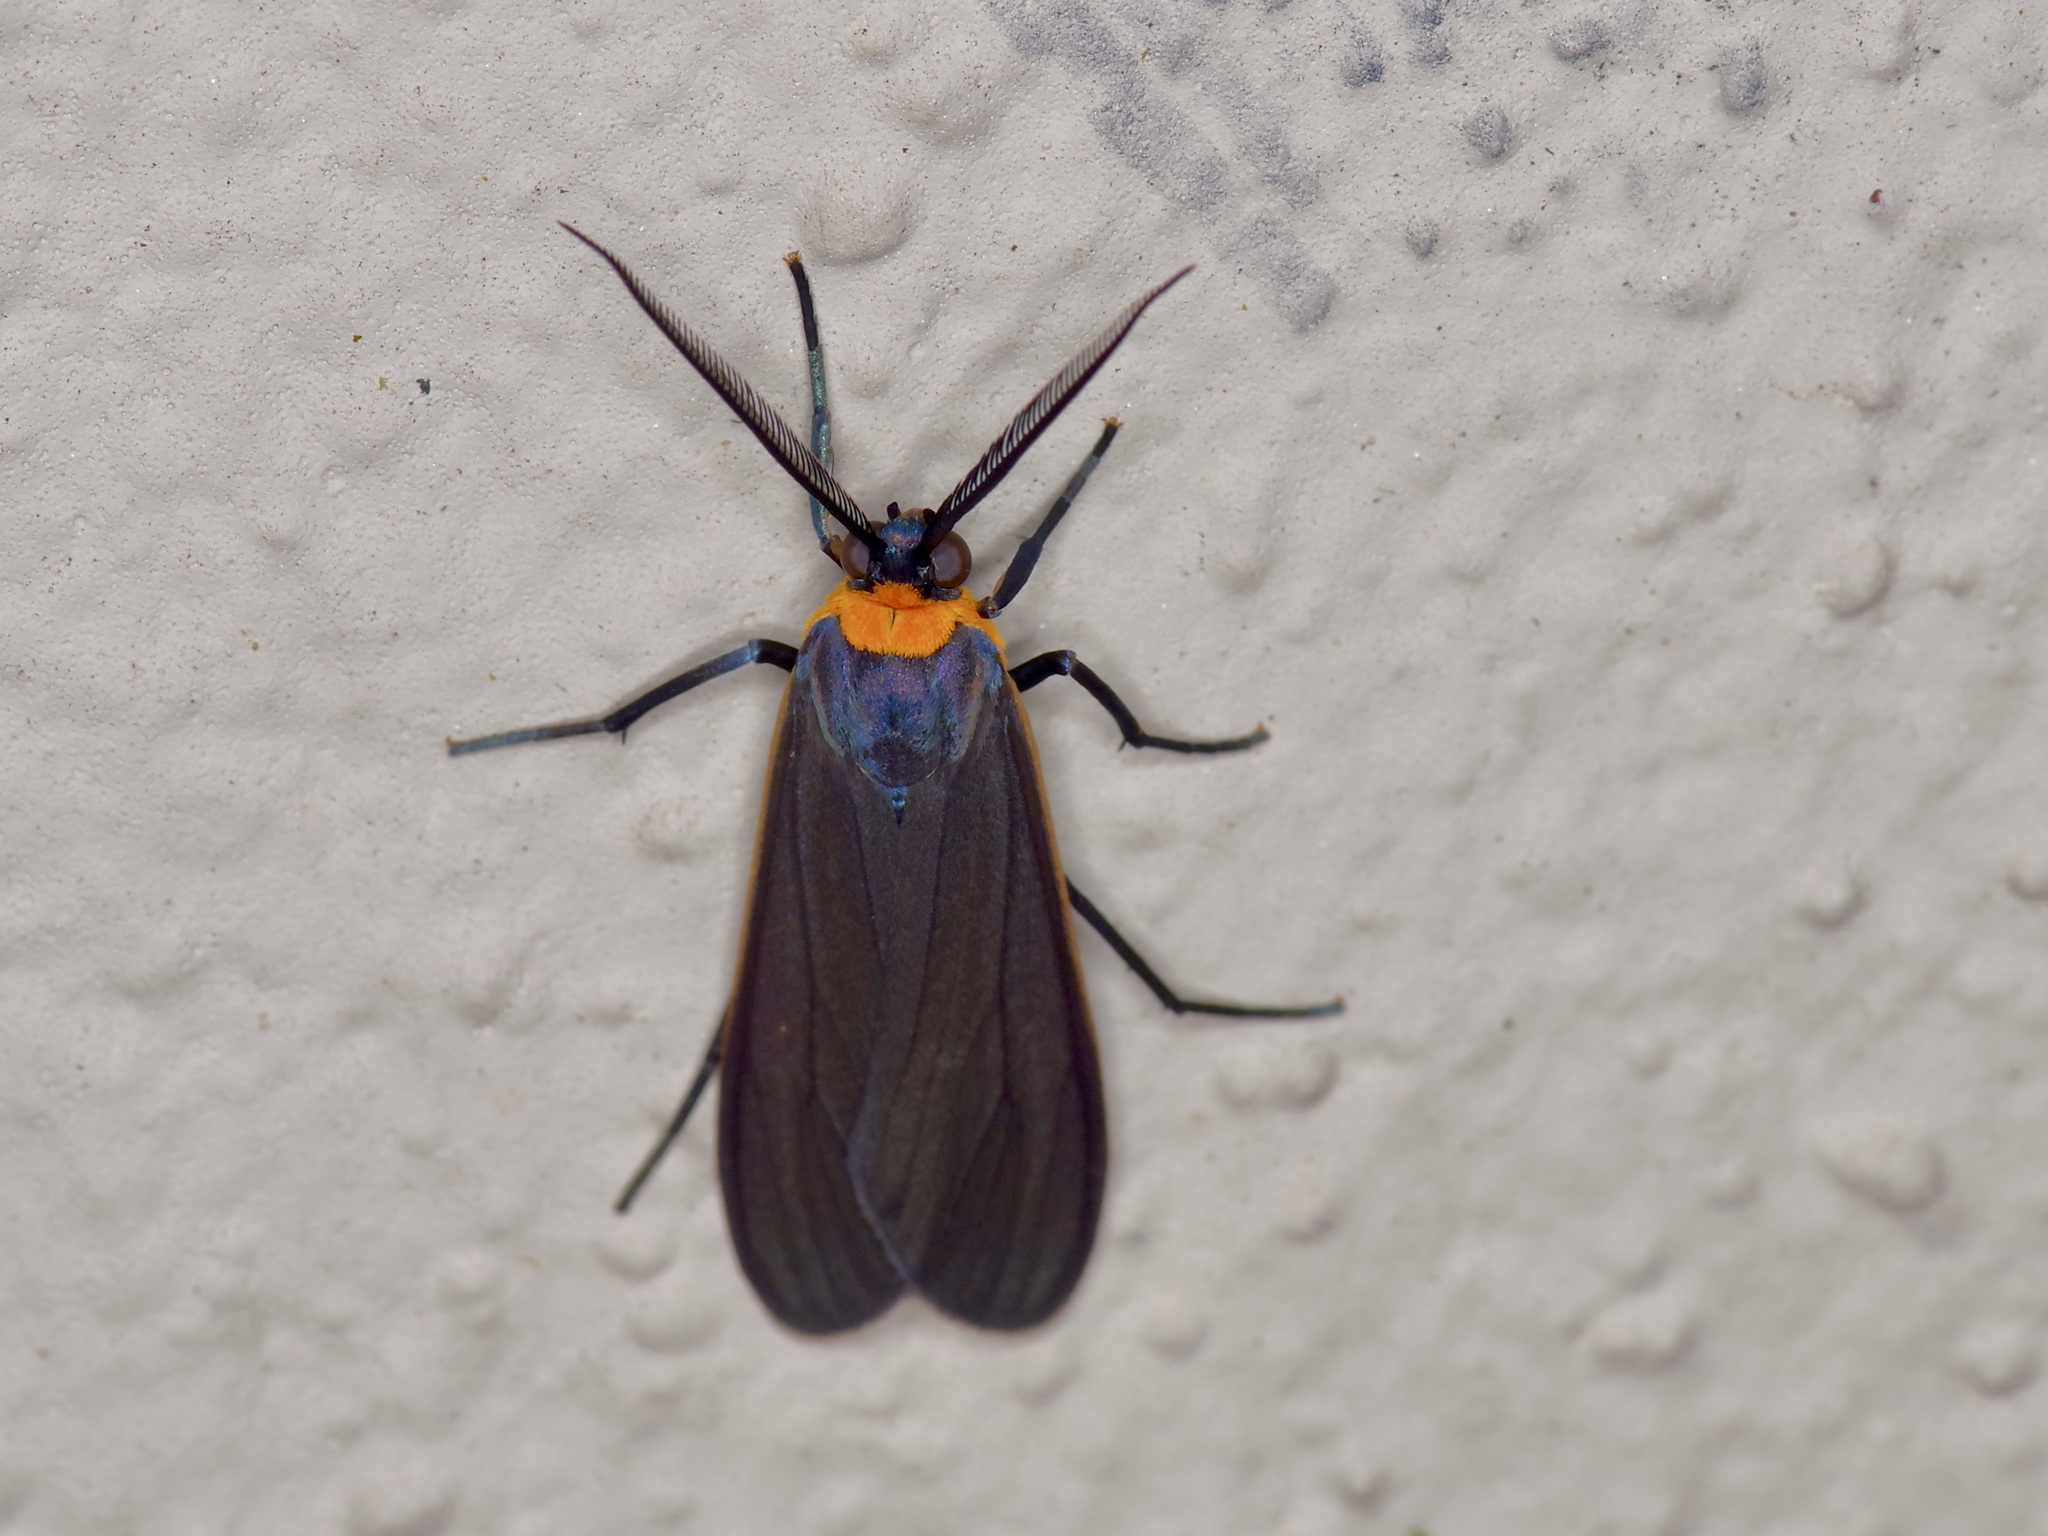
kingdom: Animalia
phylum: Arthropoda
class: Insecta
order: Lepidoptera
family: Erebidae
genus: Cisseps
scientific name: Cisseps fulvicollis
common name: Yellow-collared scape moth
